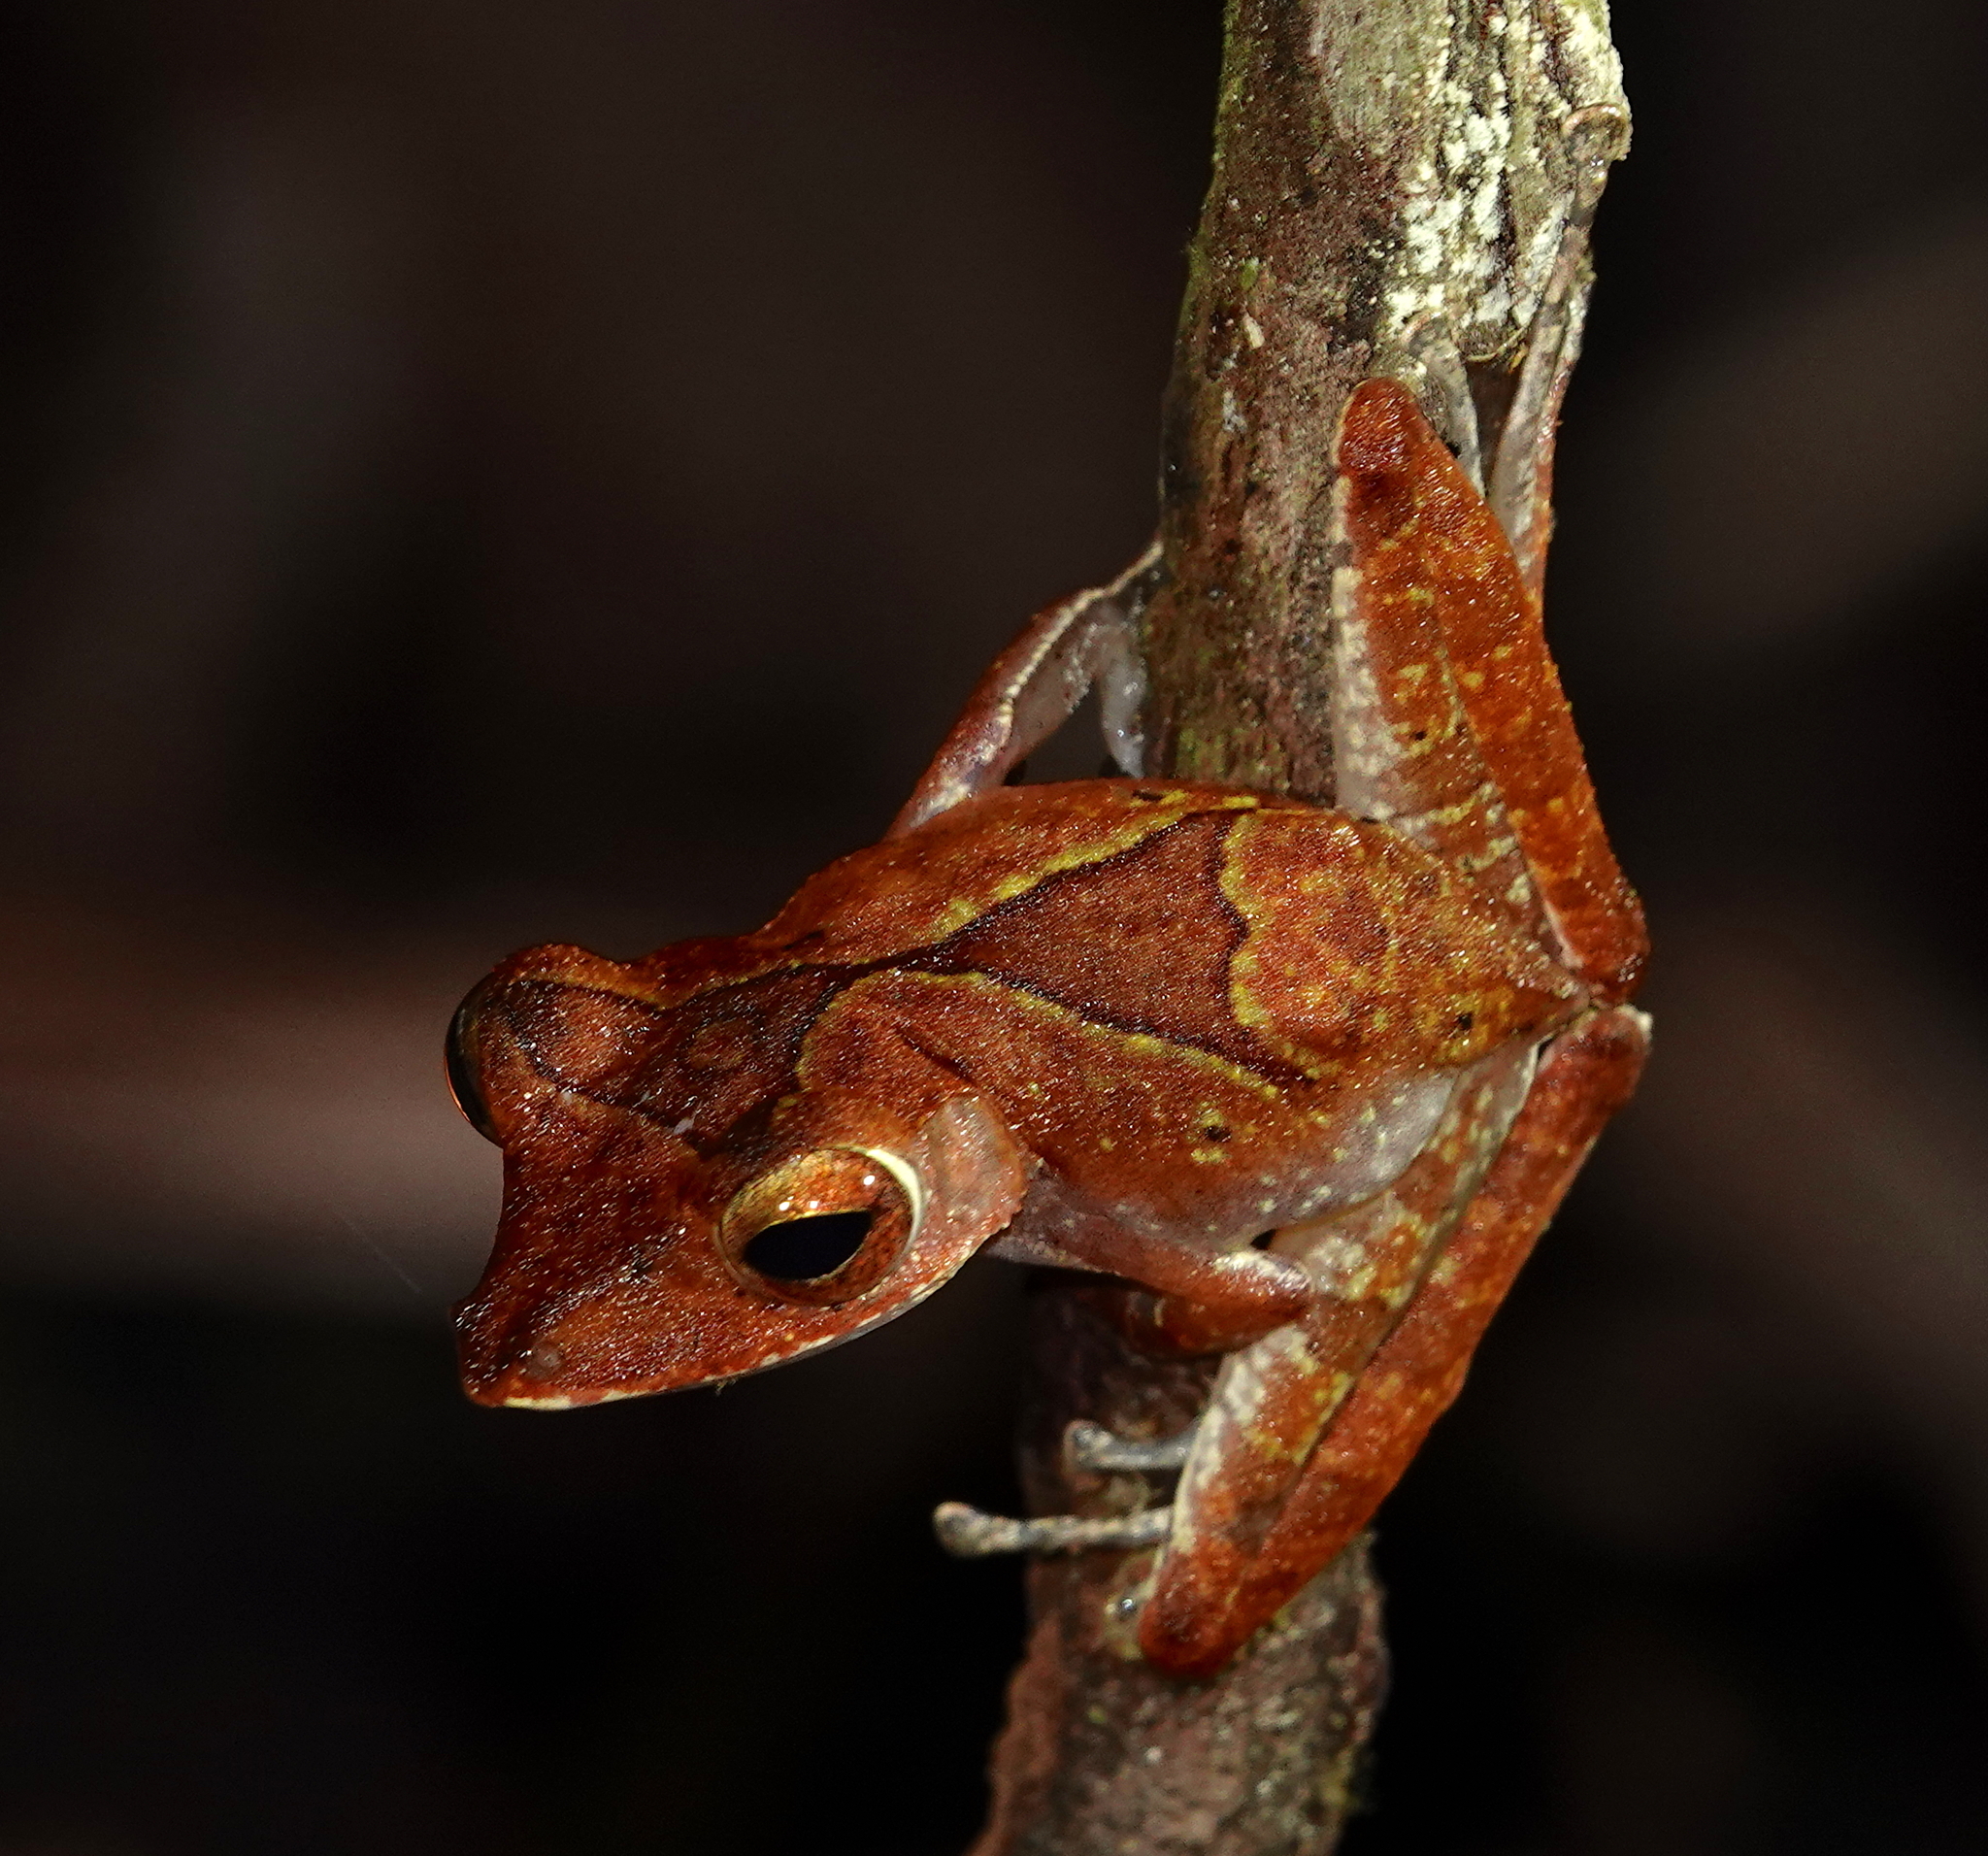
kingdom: Animalia
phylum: Chordata
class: Amphibia
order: Anura
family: Rhacophoridae
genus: Polypedates
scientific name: Polypedates colletti
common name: Collett’s tree frog
